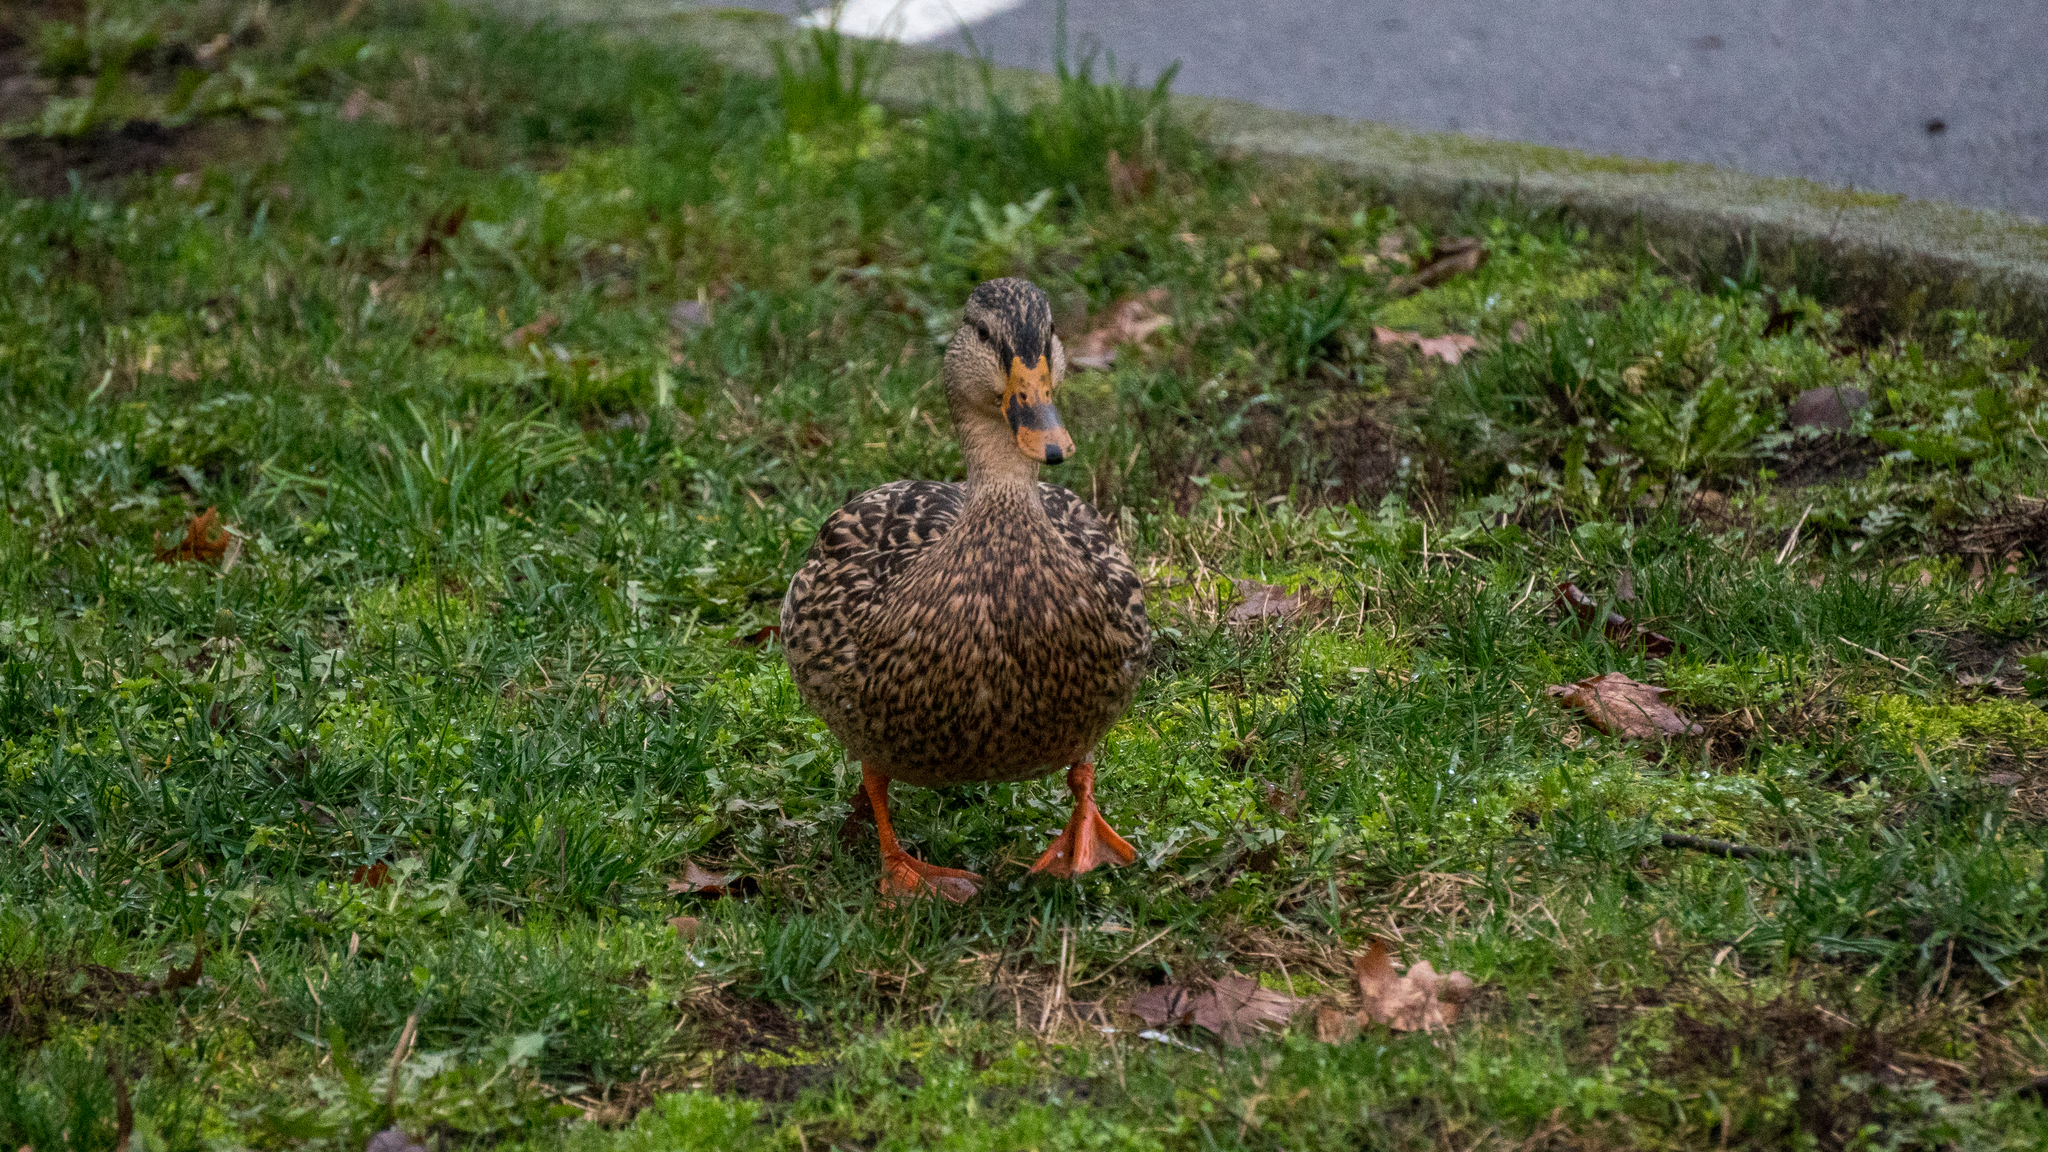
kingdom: Animalia
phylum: Chordata
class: Aves
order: Anseriformes
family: Anatidae
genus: Anas
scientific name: Anas platyrhynchos
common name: Mallard
